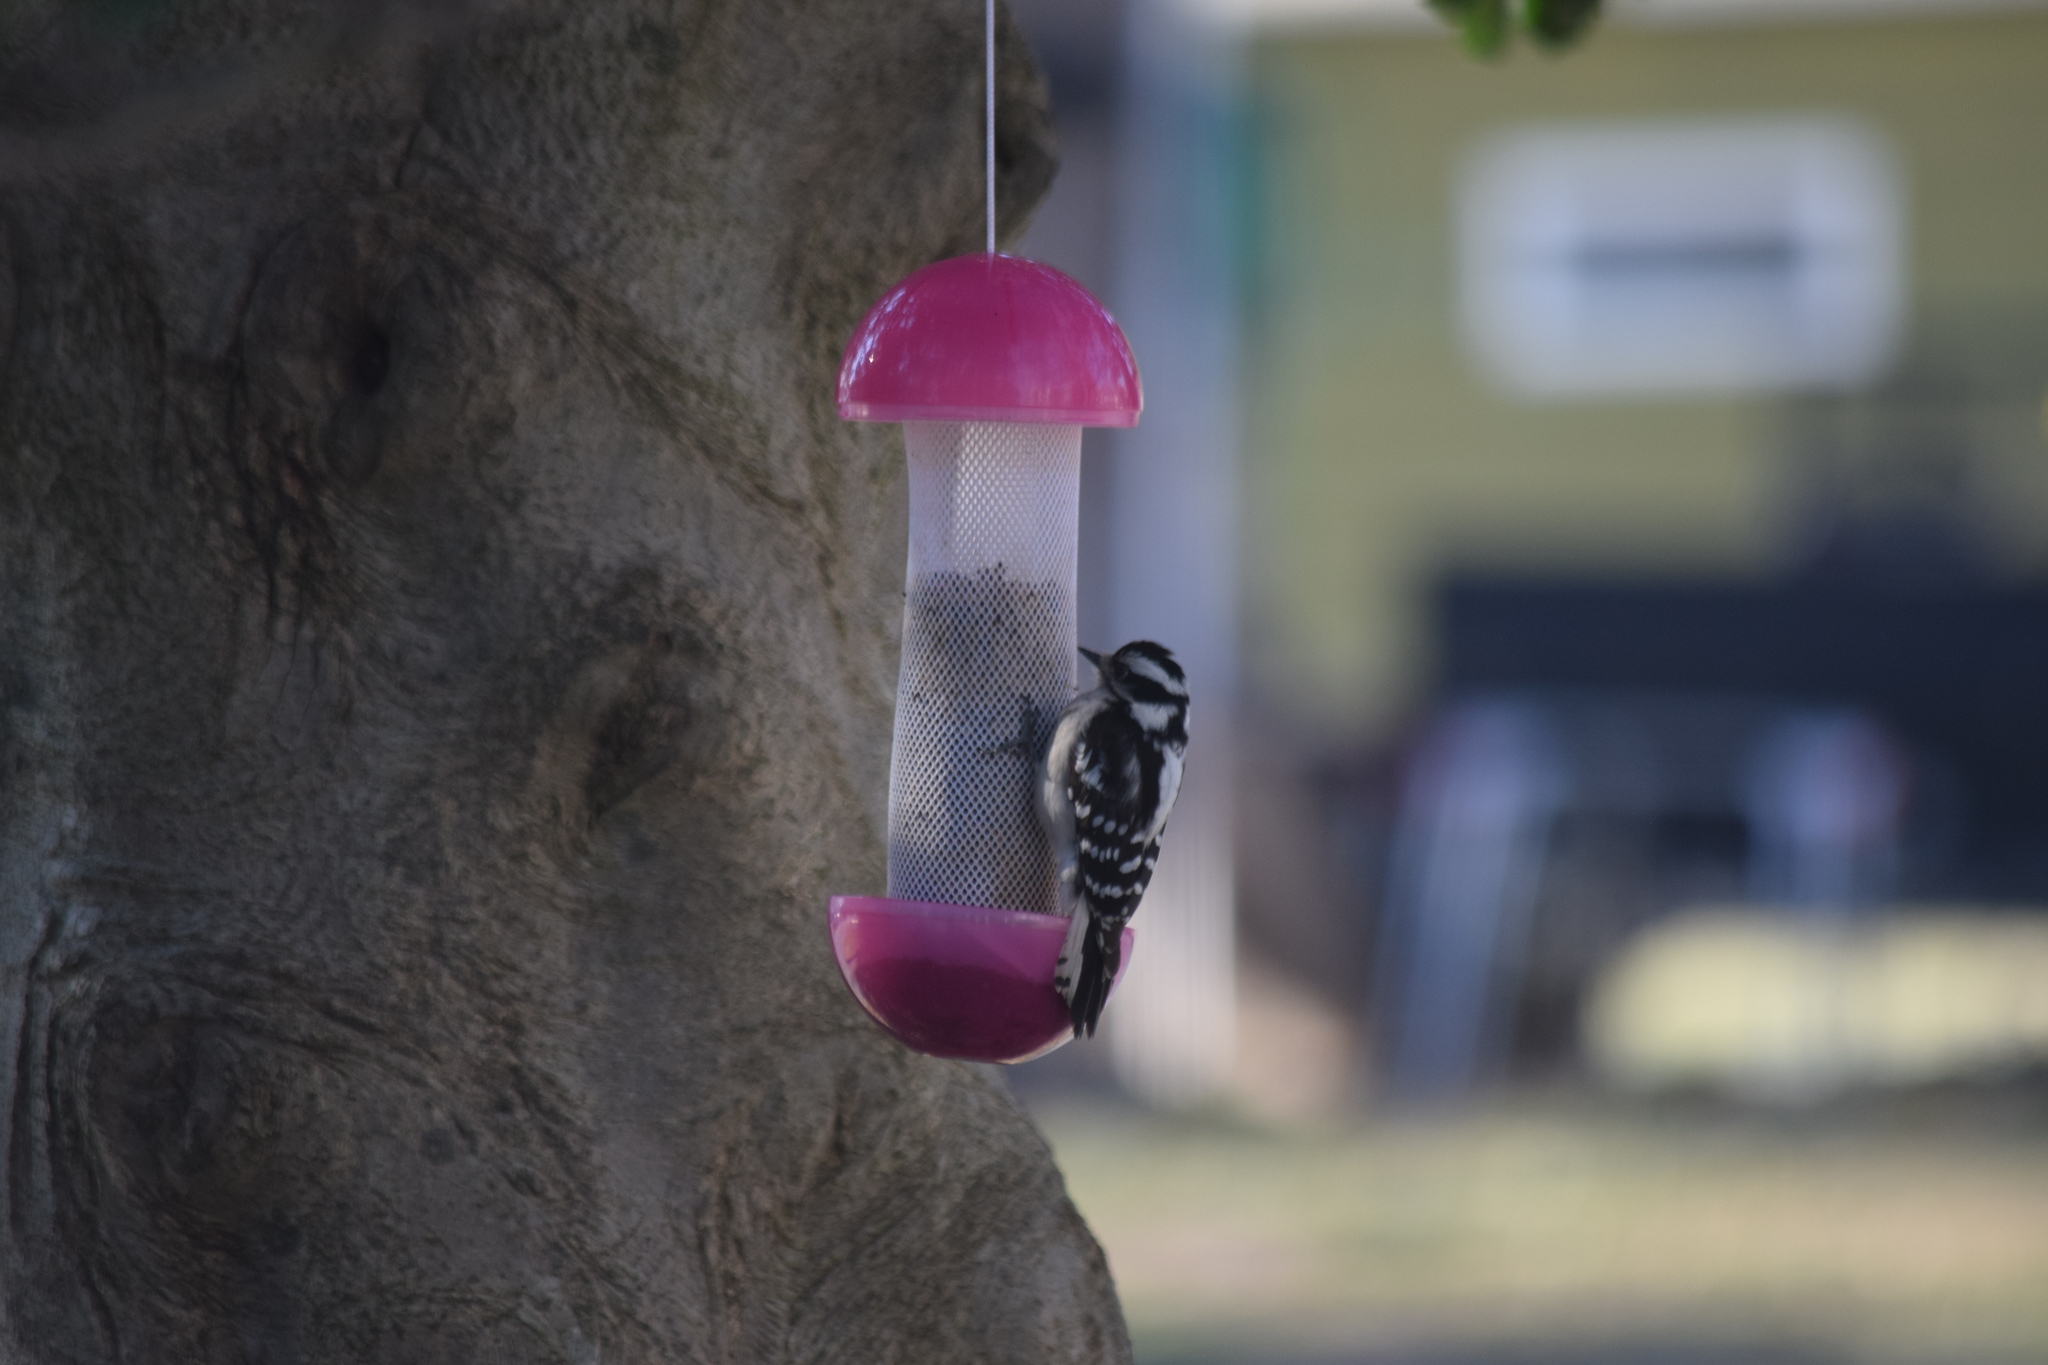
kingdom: Animalia
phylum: Chordata
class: Aves
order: Piciformes
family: Picidae
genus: Dryobates
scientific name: Dryobates pubescens
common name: Downy woodpecker
